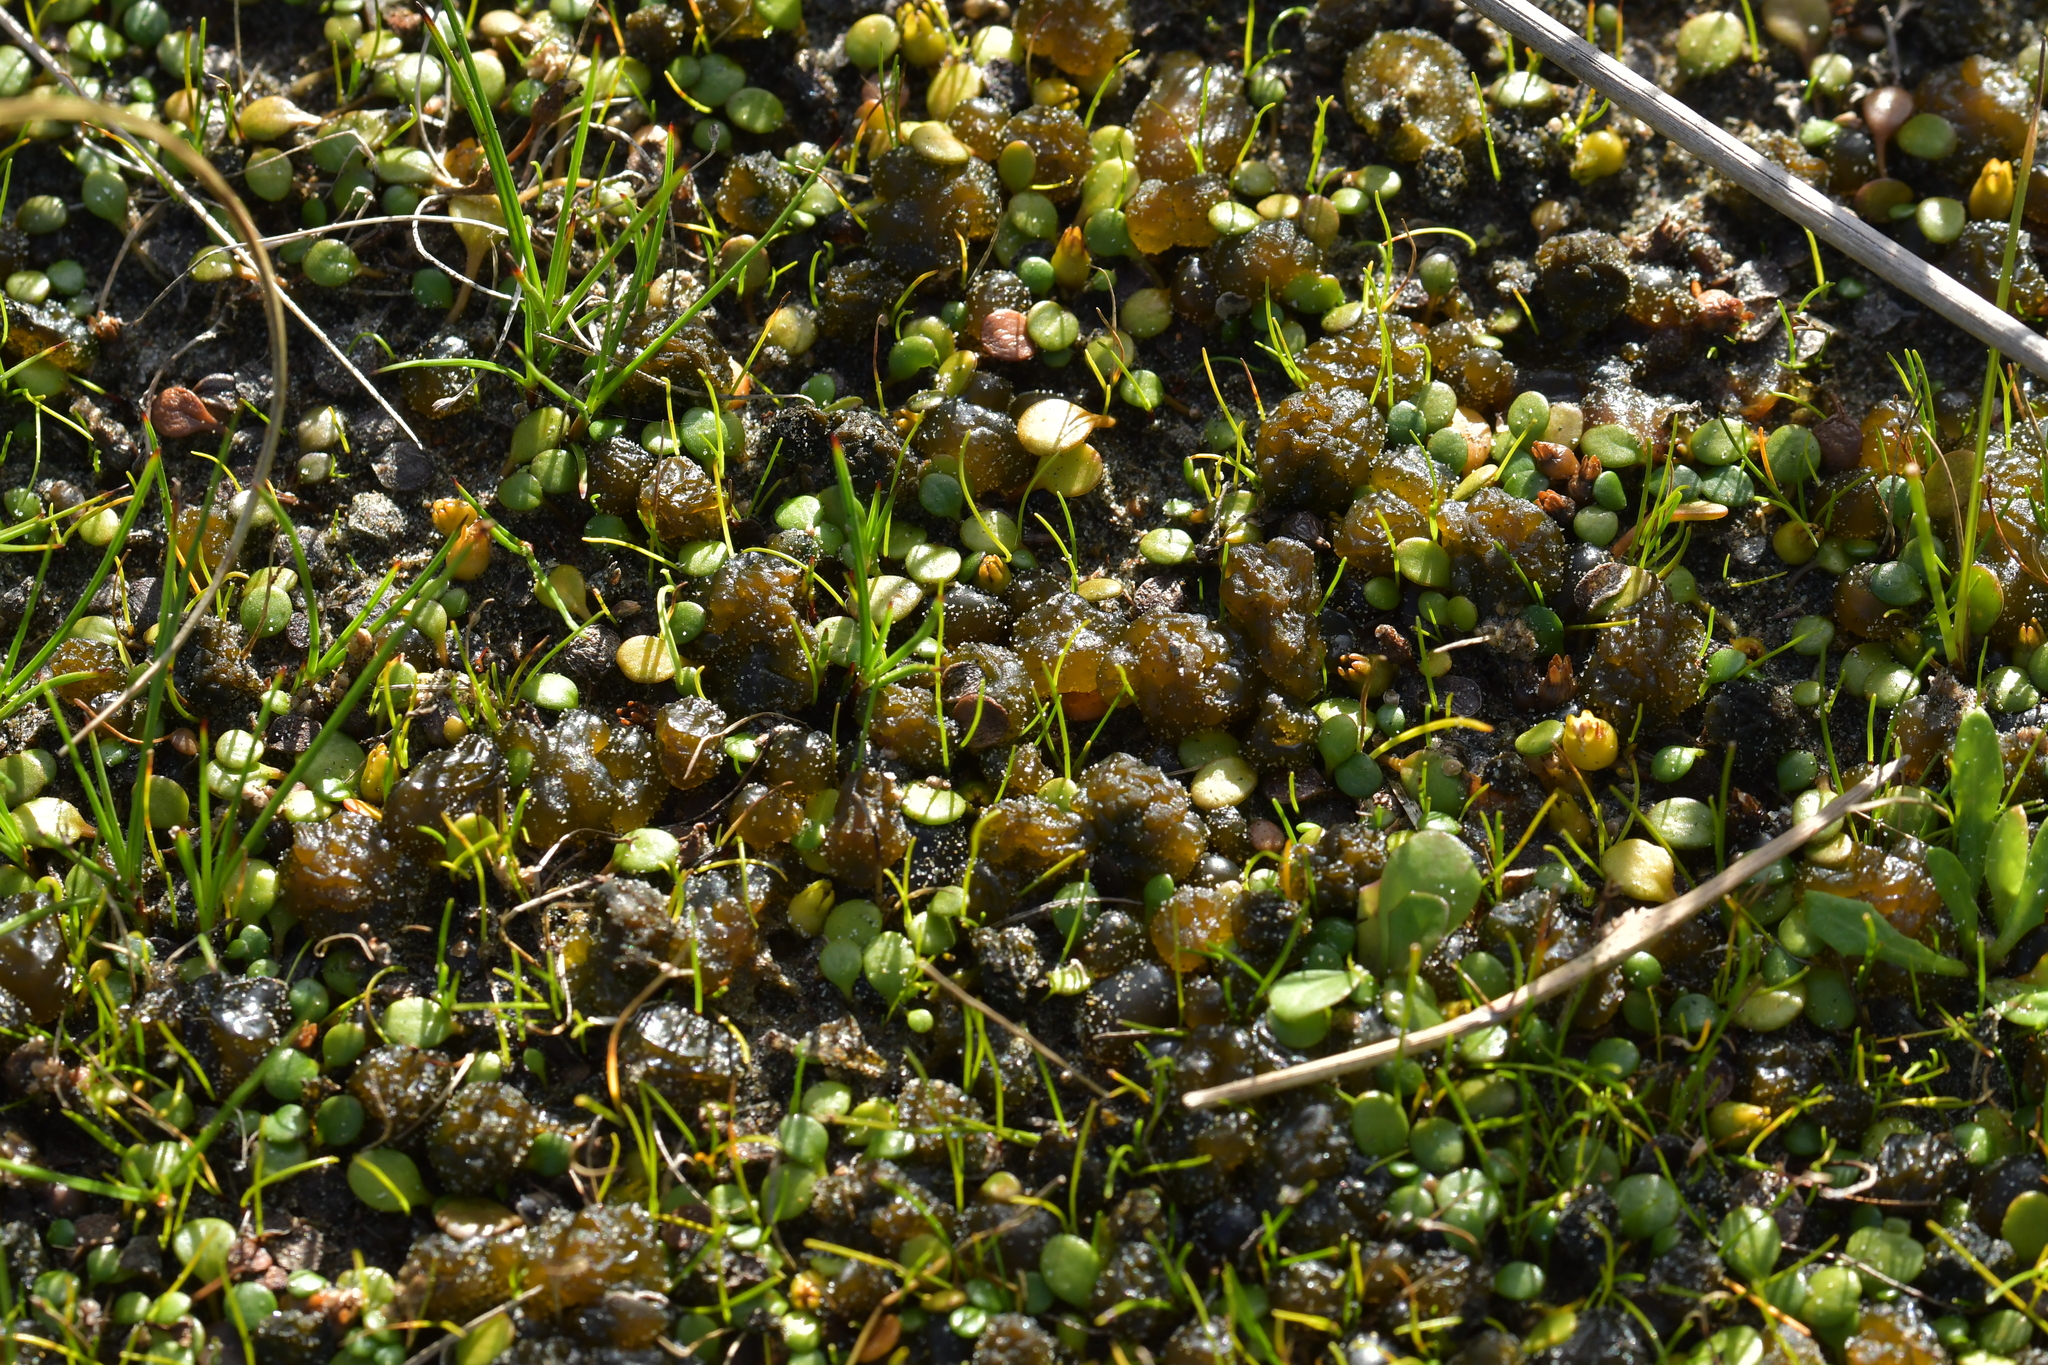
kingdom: Bacteria
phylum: Cyanobacteria
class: Cyanobacteriia
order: Cyanobacteriales
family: Nostocaceae
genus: Nostoc
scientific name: Nostoc commune
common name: Star jelly
